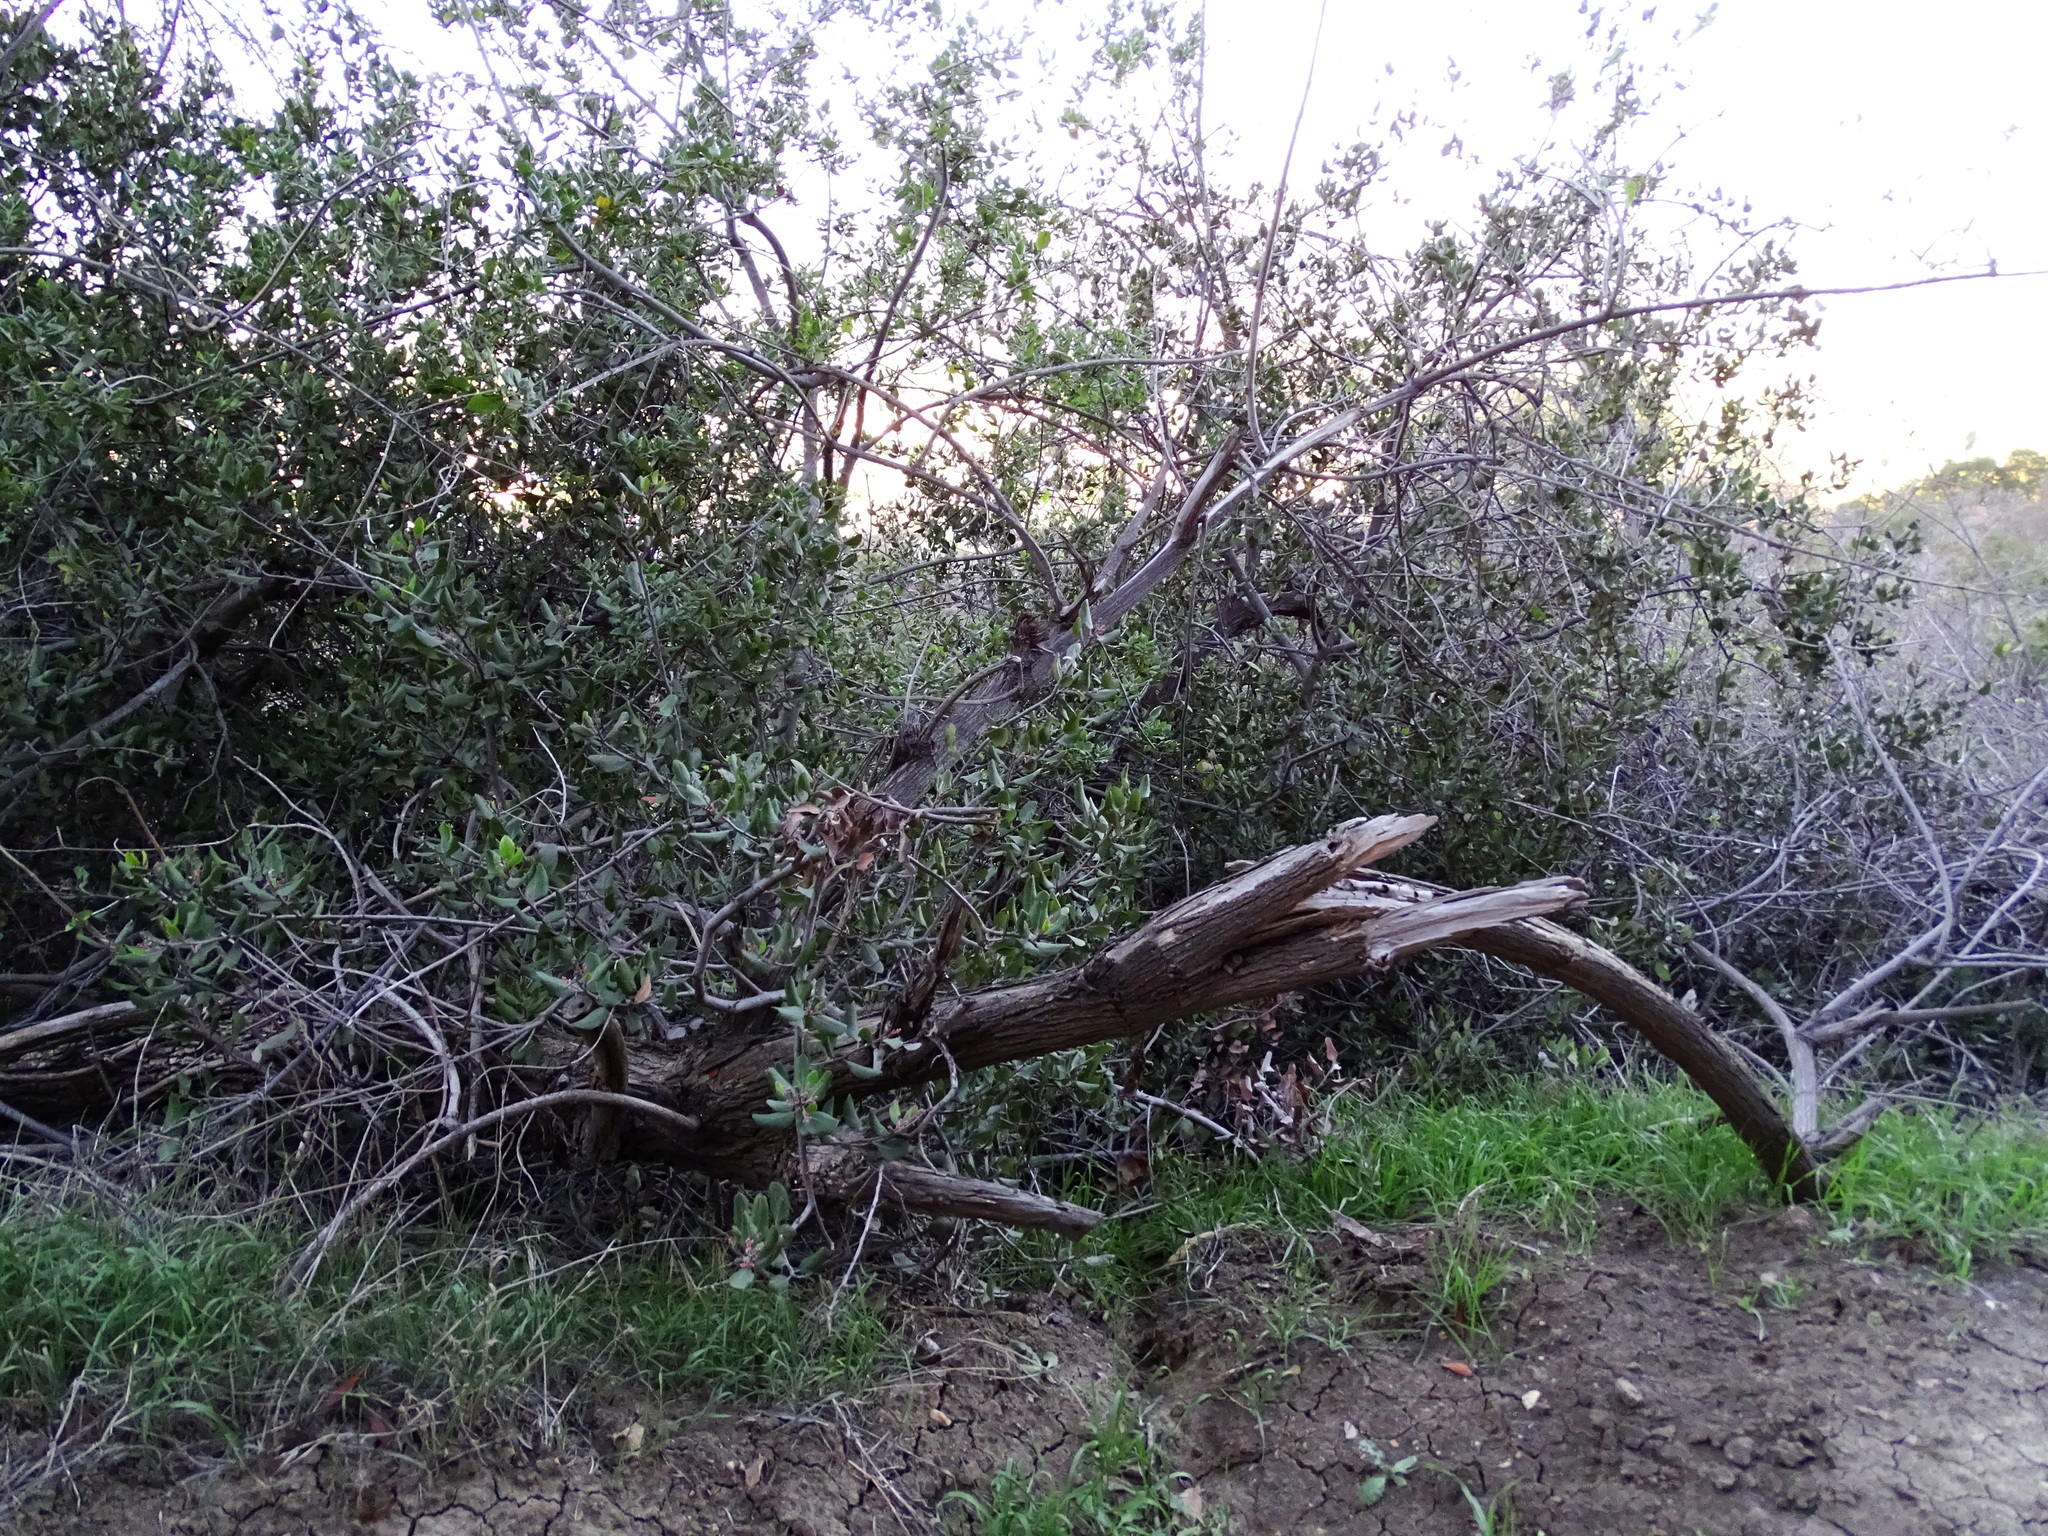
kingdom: Plantae
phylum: Tracheophyta
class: Magnoliopsida
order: Sapindales
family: Anacardiaceae
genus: Rhus
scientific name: Rhus integrifolia
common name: Lemonade sumac
